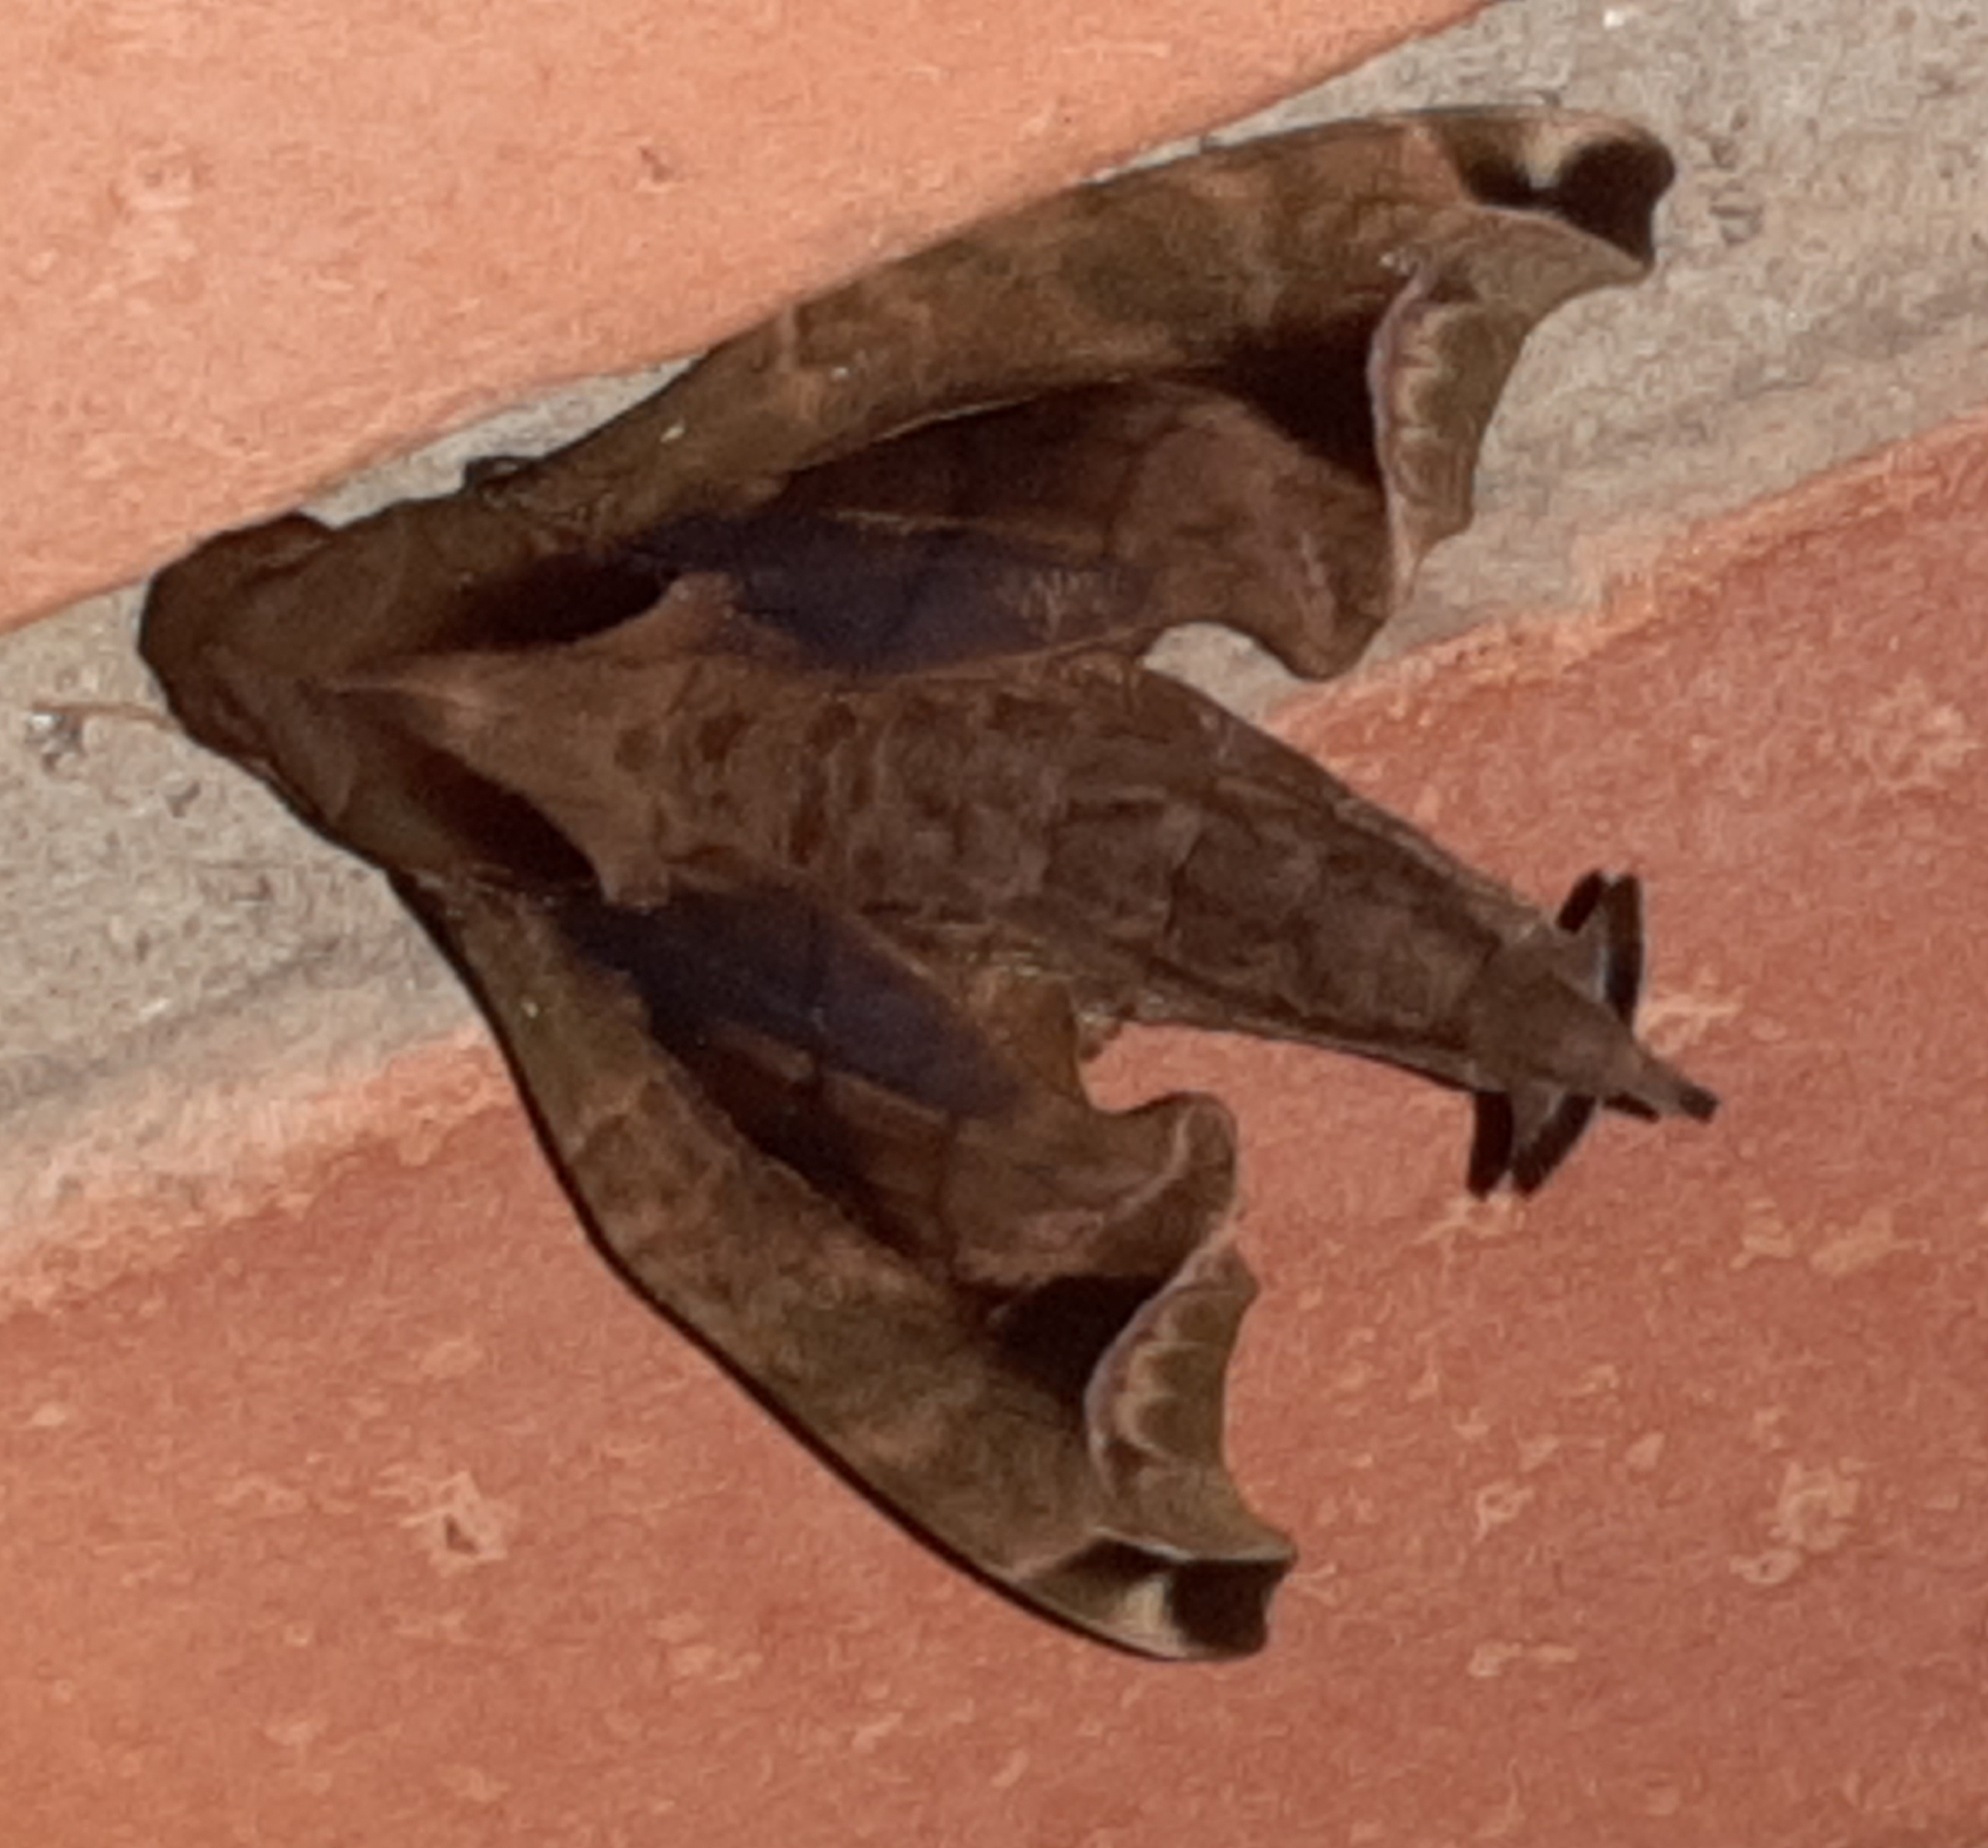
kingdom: Animalia
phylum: Arthropoda
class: Insecta
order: Lepidoptera
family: Sphingidae
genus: Enyo
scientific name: Enyo gorgon
